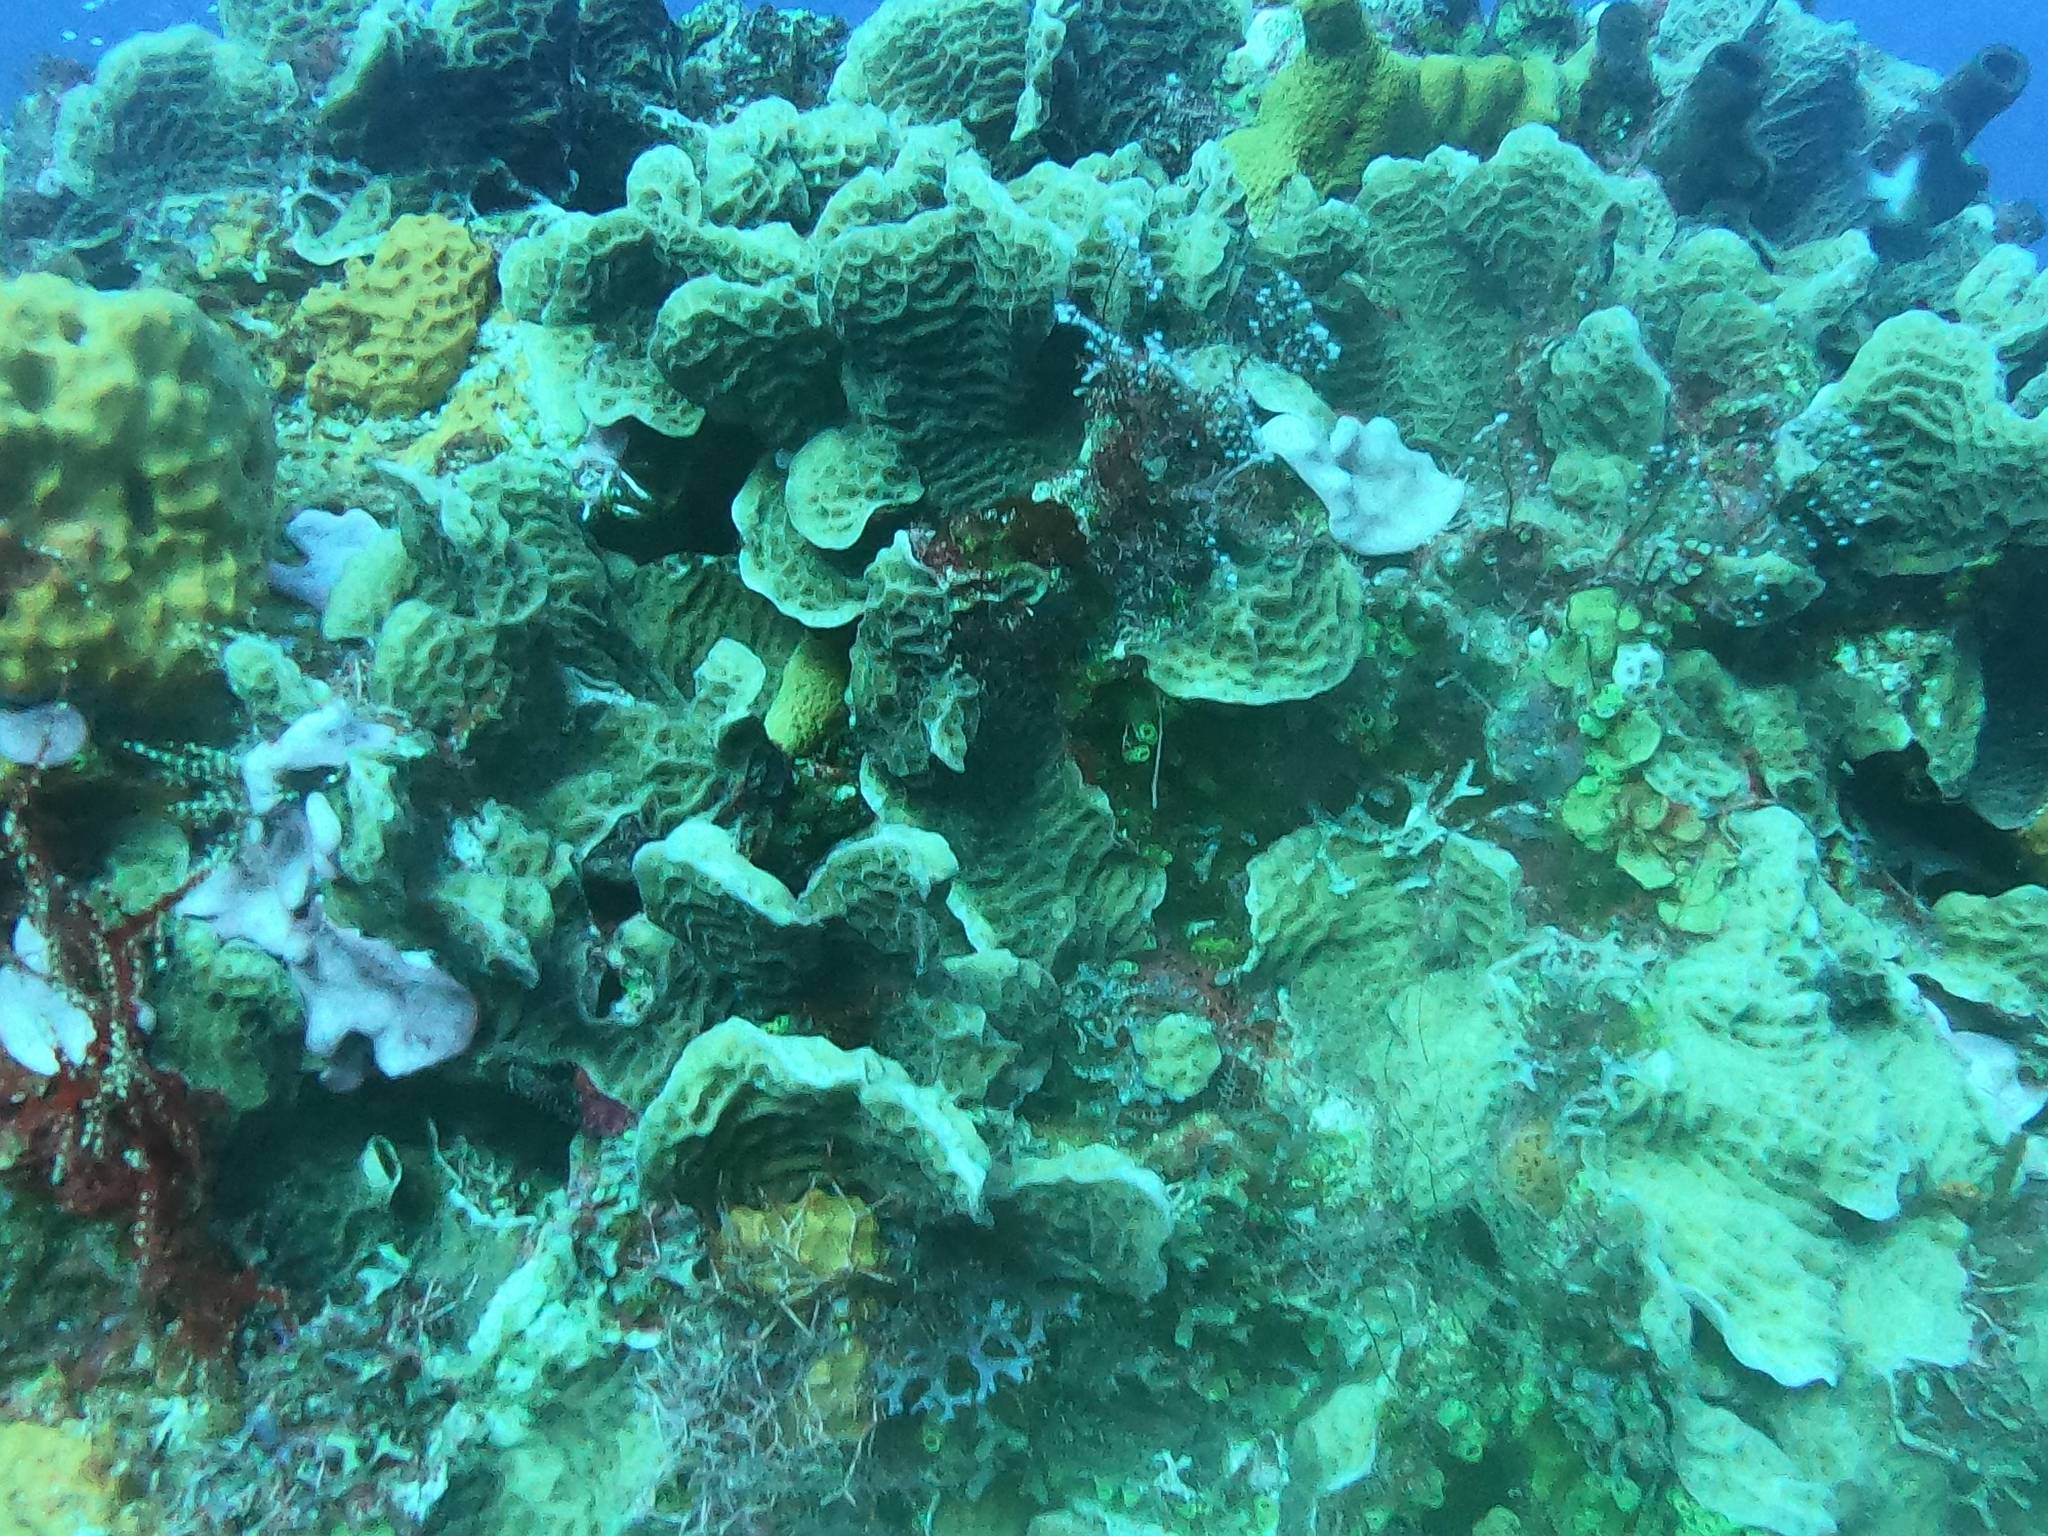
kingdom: Animalia
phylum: Cnidaria
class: Anthozoa
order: Scleractinia
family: Agariciidae
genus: Agaricia
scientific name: Agaricia agaricites
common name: Lettuce coral
